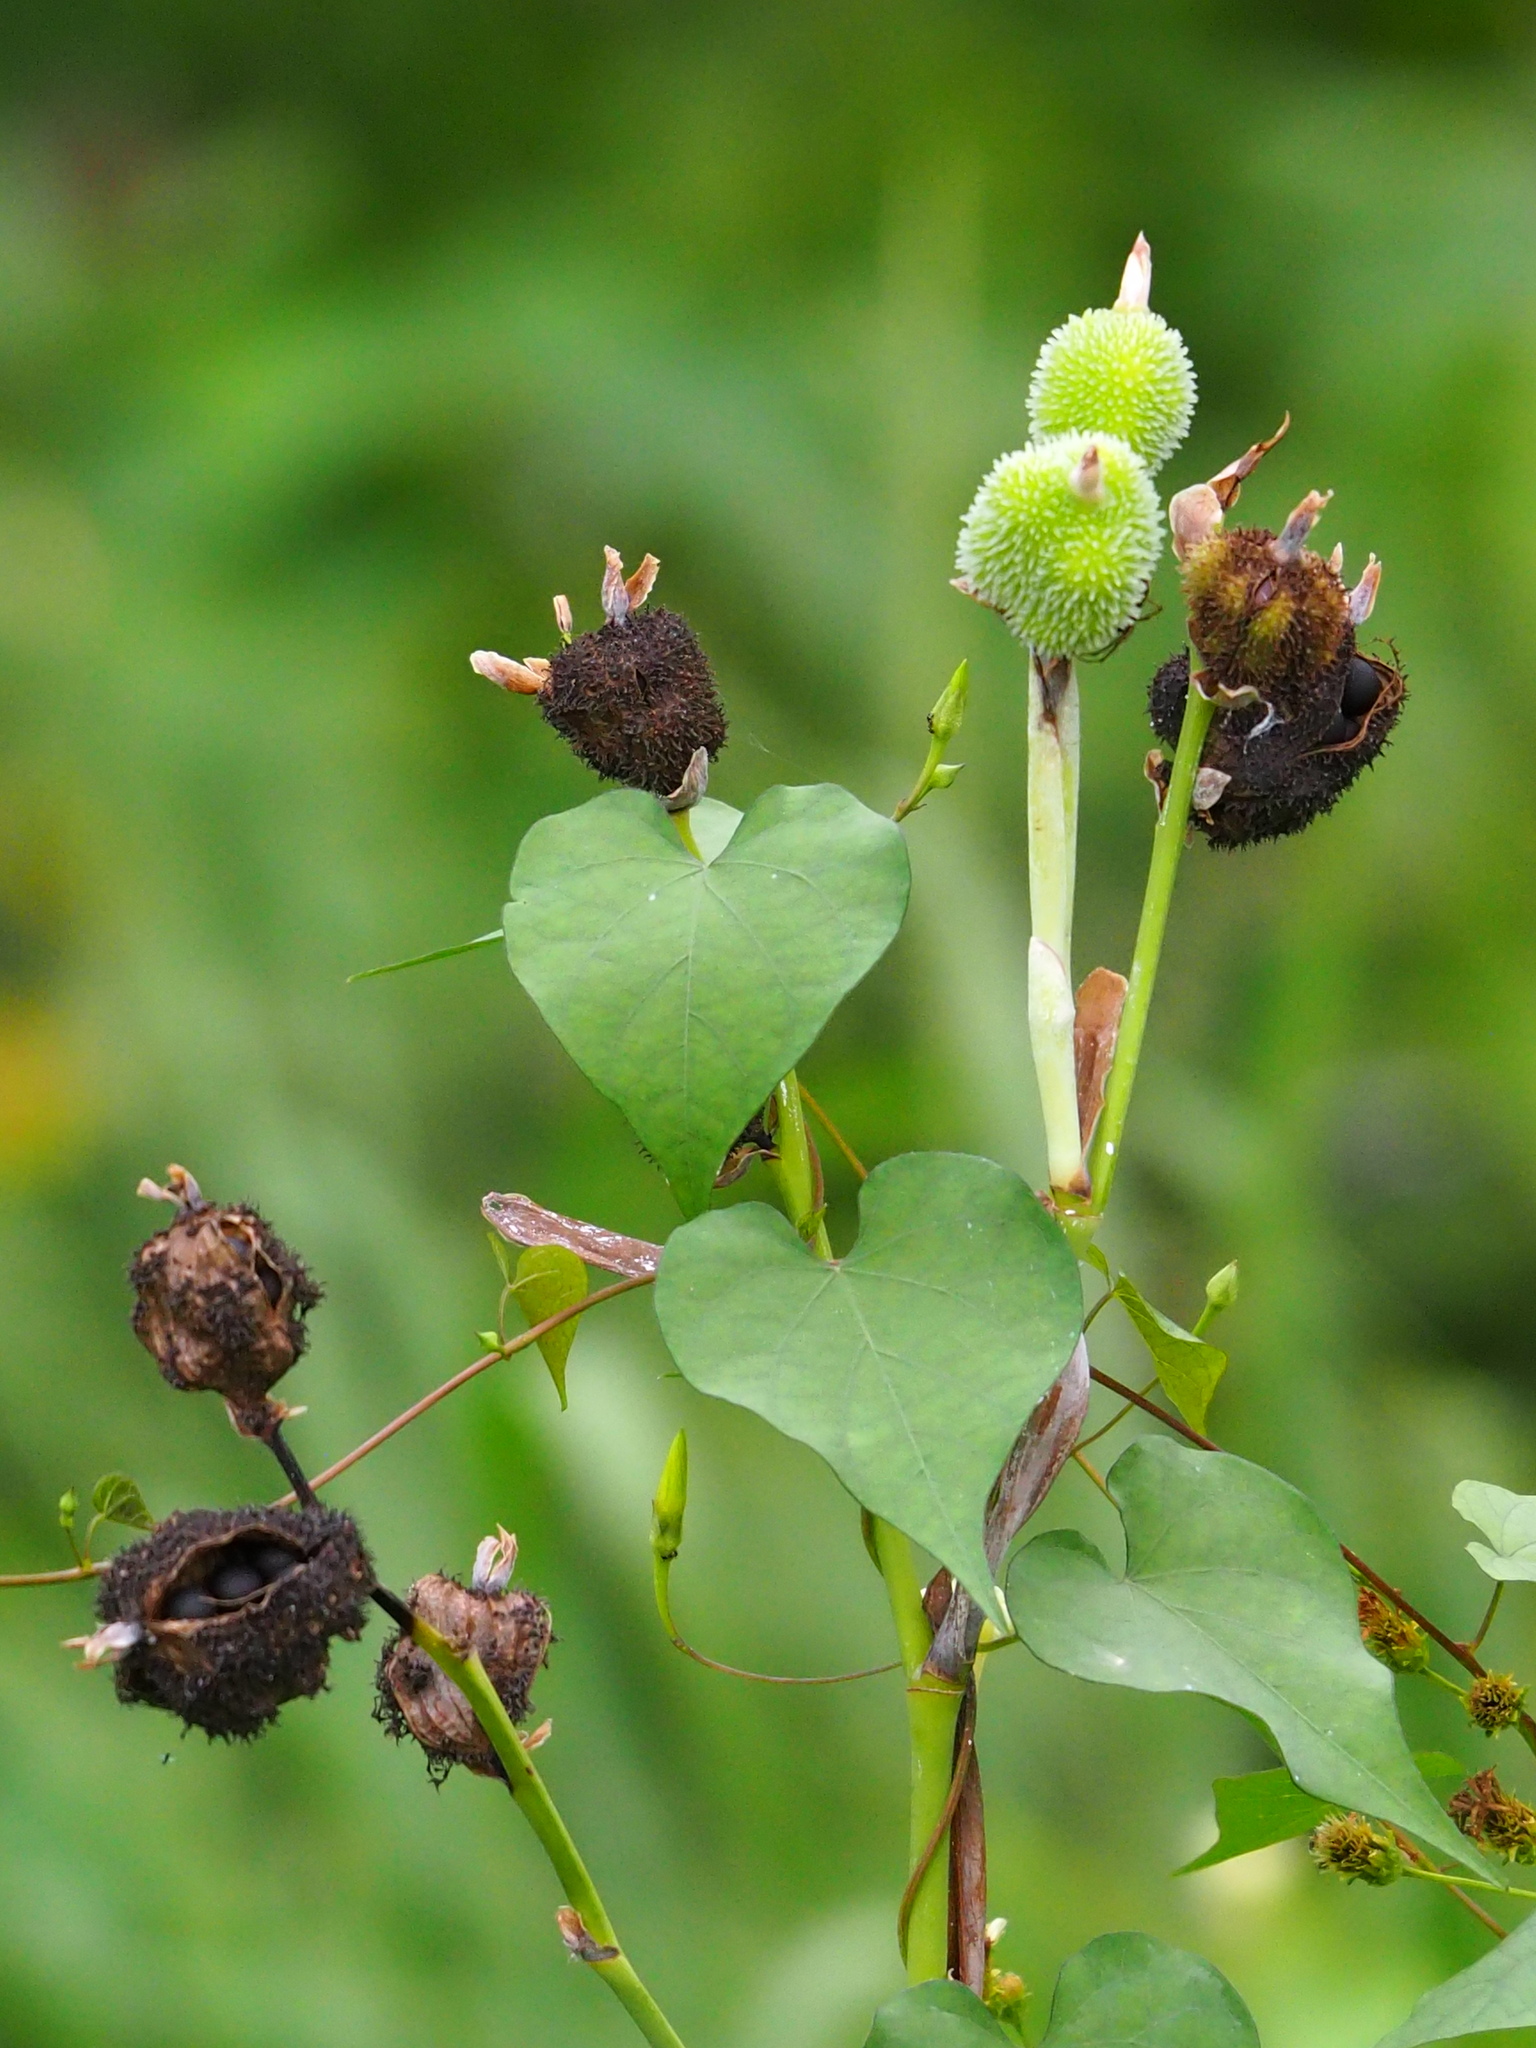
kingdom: Plantae
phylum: Tracheophyta
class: Liliopsida
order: Zingiberales
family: Cannaceae
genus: Canna
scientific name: Canna indica
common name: Indian shot
